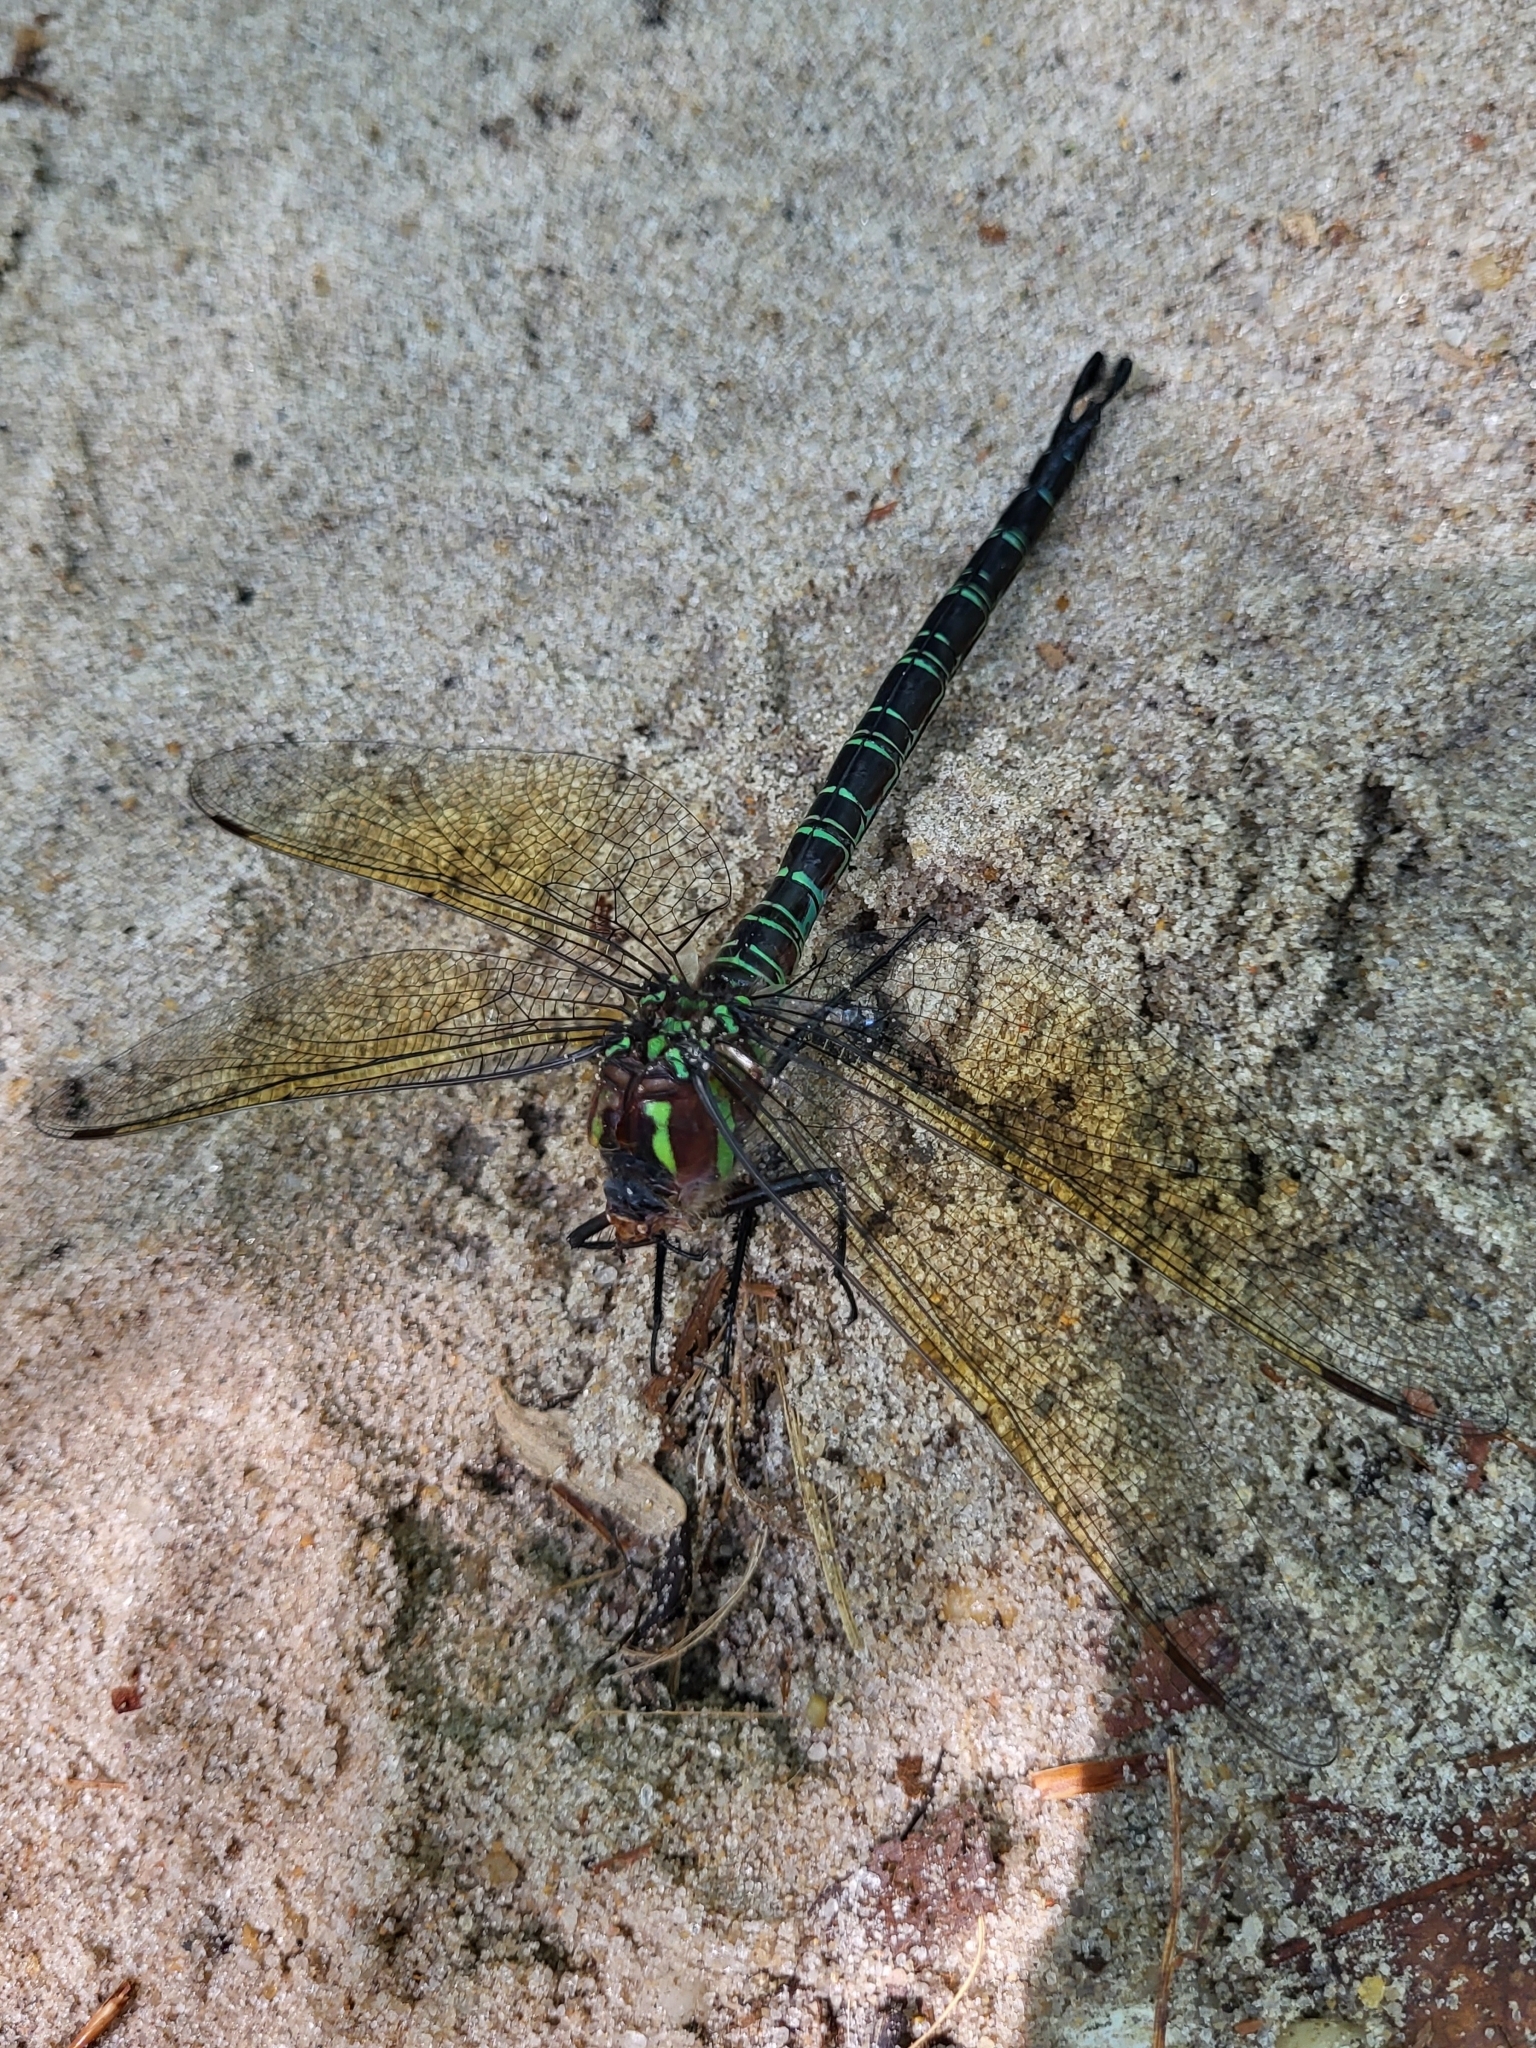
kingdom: Animalia
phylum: Arthropoda
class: Insecta
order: Odonata
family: Aeshnidae
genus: Epiaeschna
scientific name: Epiaeschna heros
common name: Swamp darner
